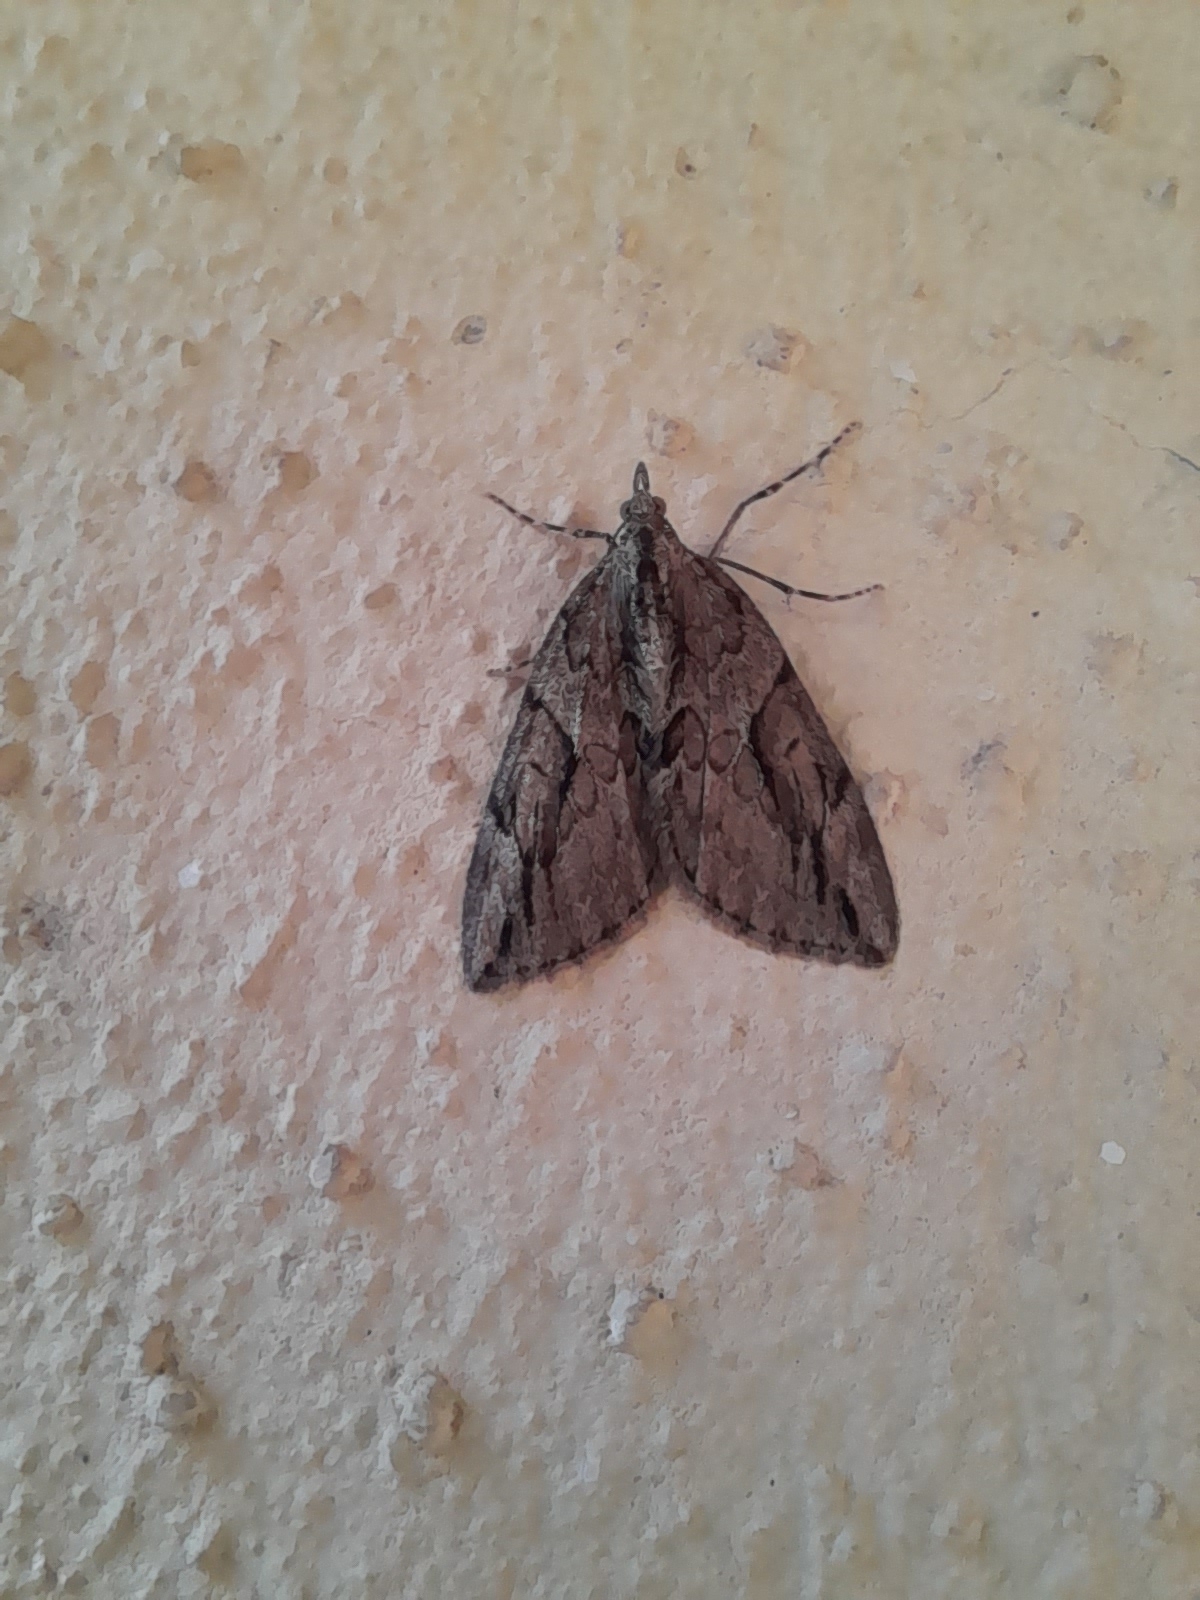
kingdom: Animalia
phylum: Arthropoda
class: Insecta
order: Lepidoptera
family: Geometridae
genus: Thera
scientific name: Thera cupressata
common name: Cypress carpet
